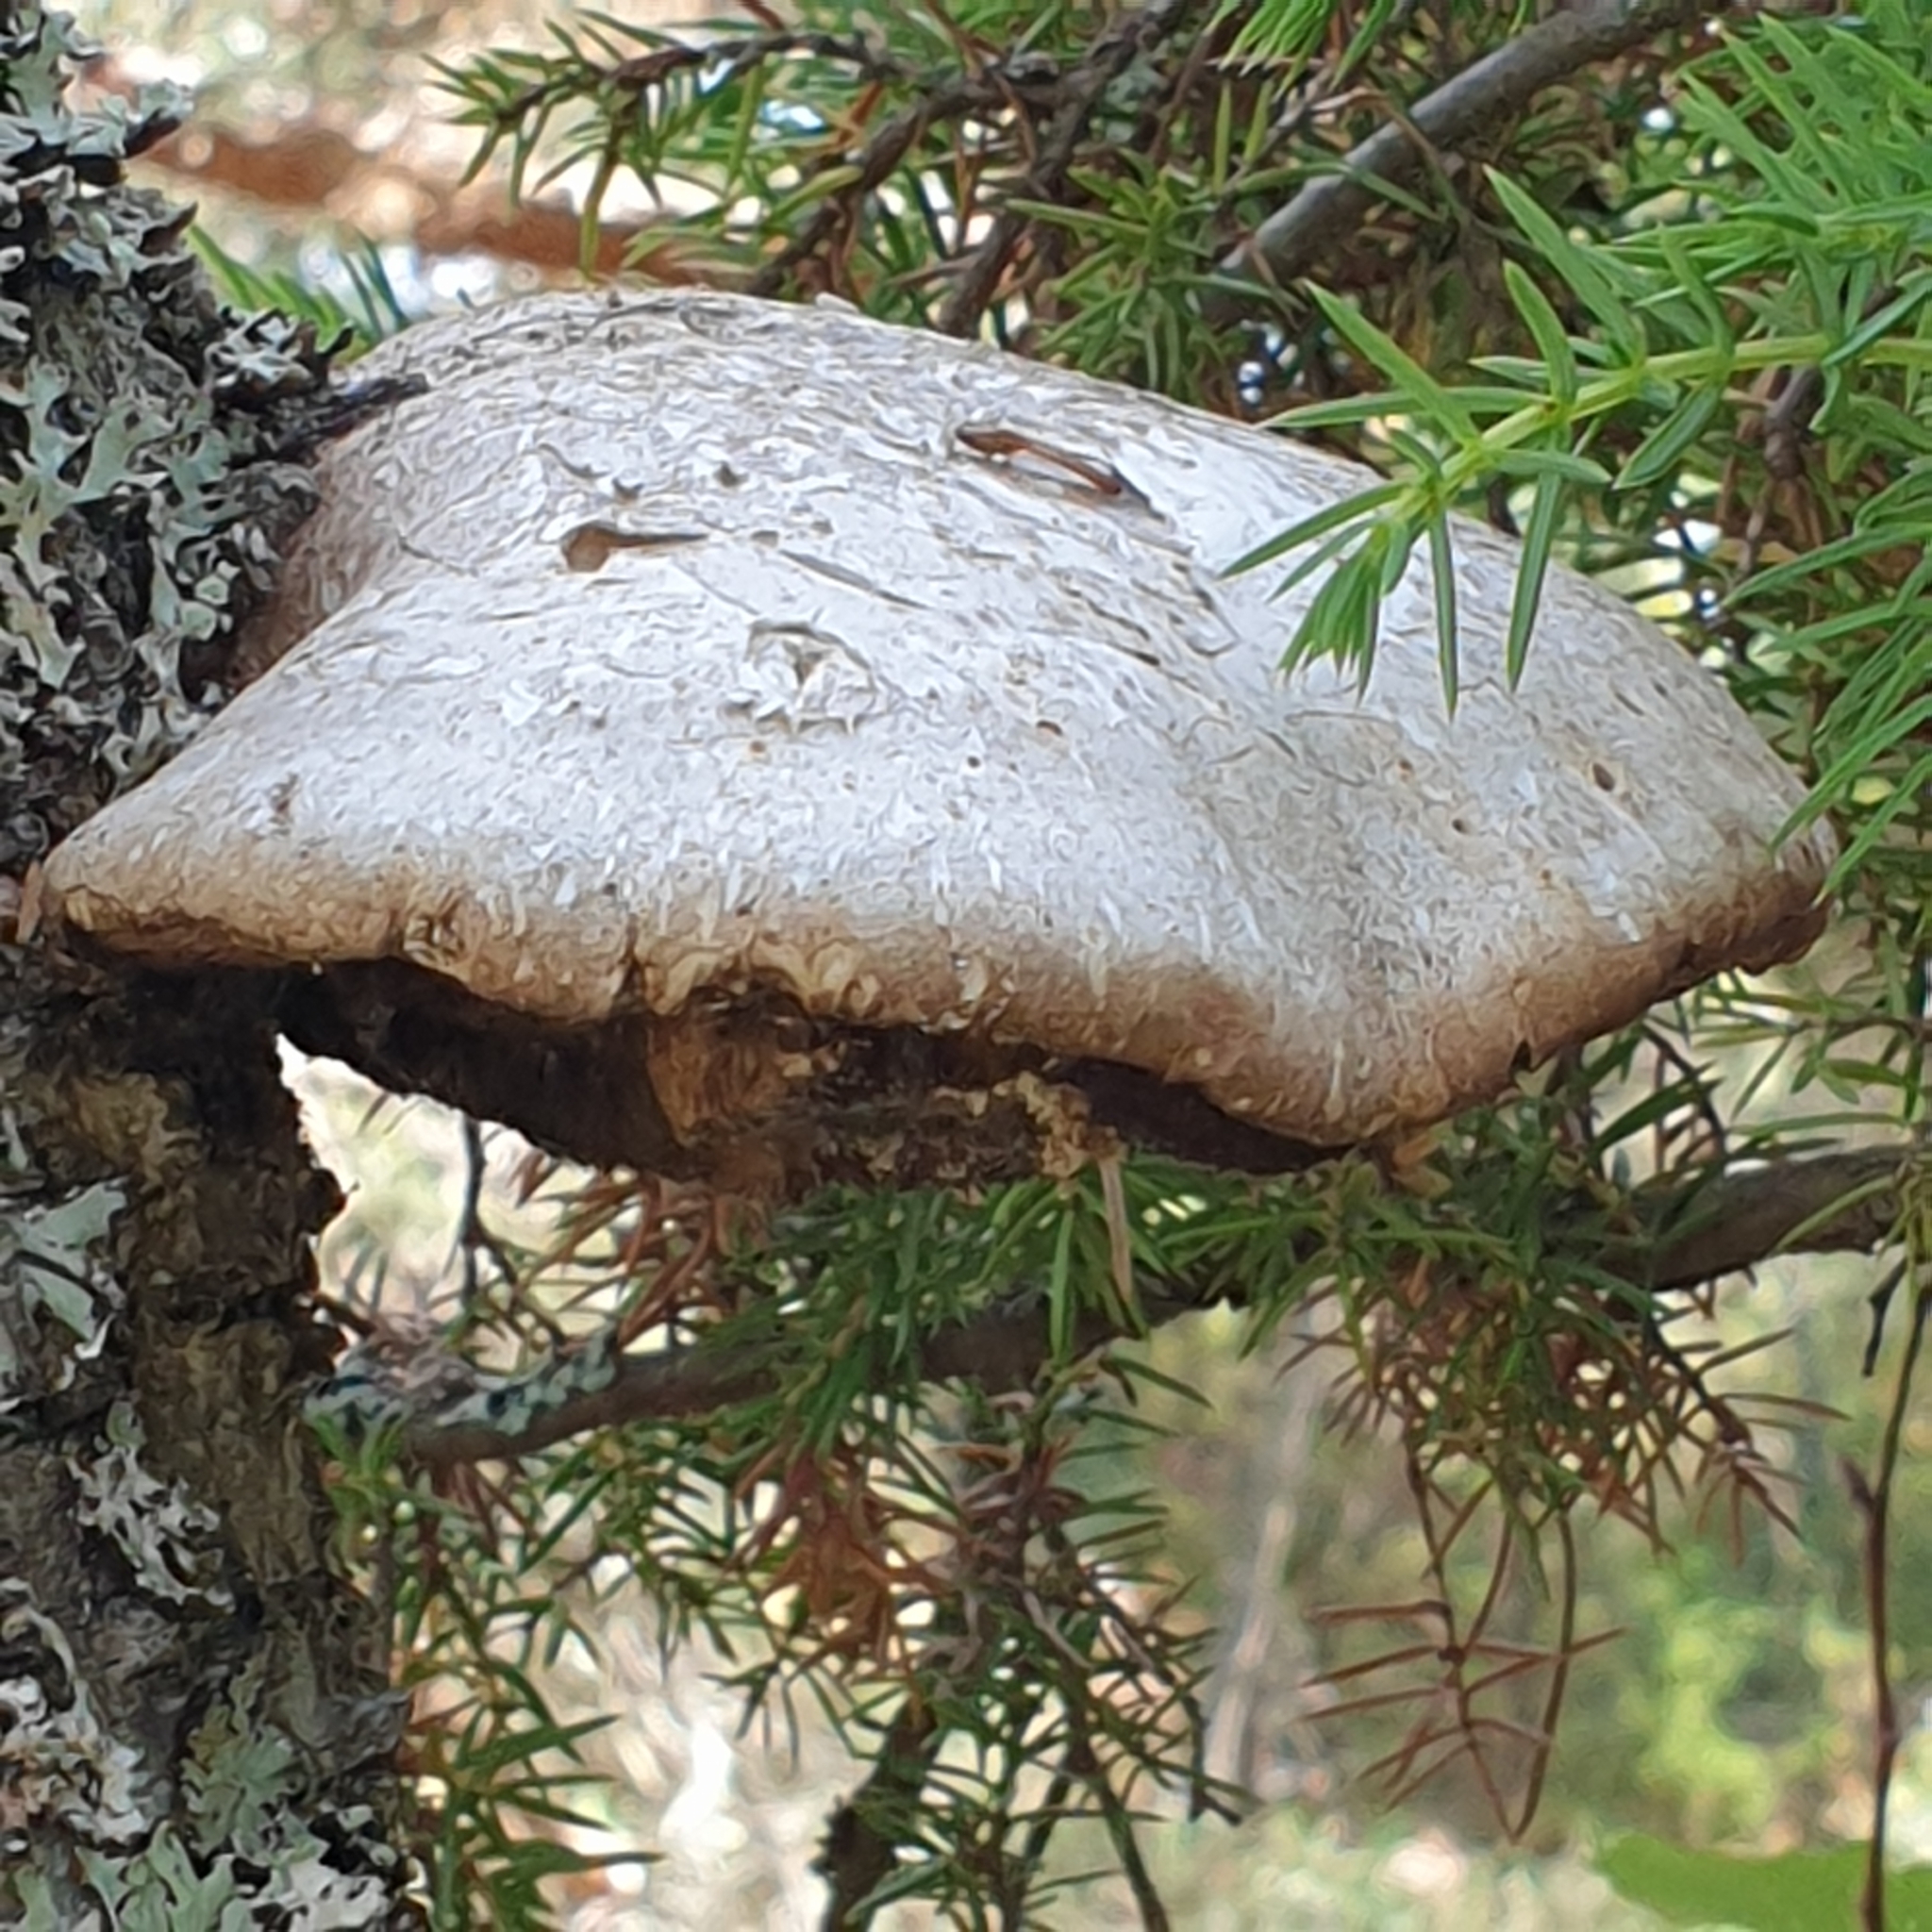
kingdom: Fungi
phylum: Basidiomycota
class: Agaricomycetes
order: Polyporales
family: Fomitopsidaceae
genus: Fomitopsis
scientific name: Fomitopsis betulina
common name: Birch polypore
